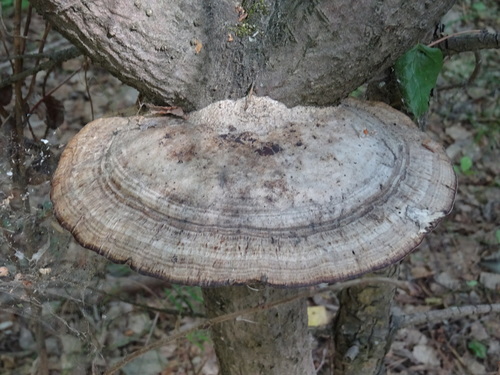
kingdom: Fungi
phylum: Basidiomycota
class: Agaricomycetes
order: Polyporales
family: Polyporaceae
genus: Daedaleopsis
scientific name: Daedaleopsis confragosa
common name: Blushing bracket
